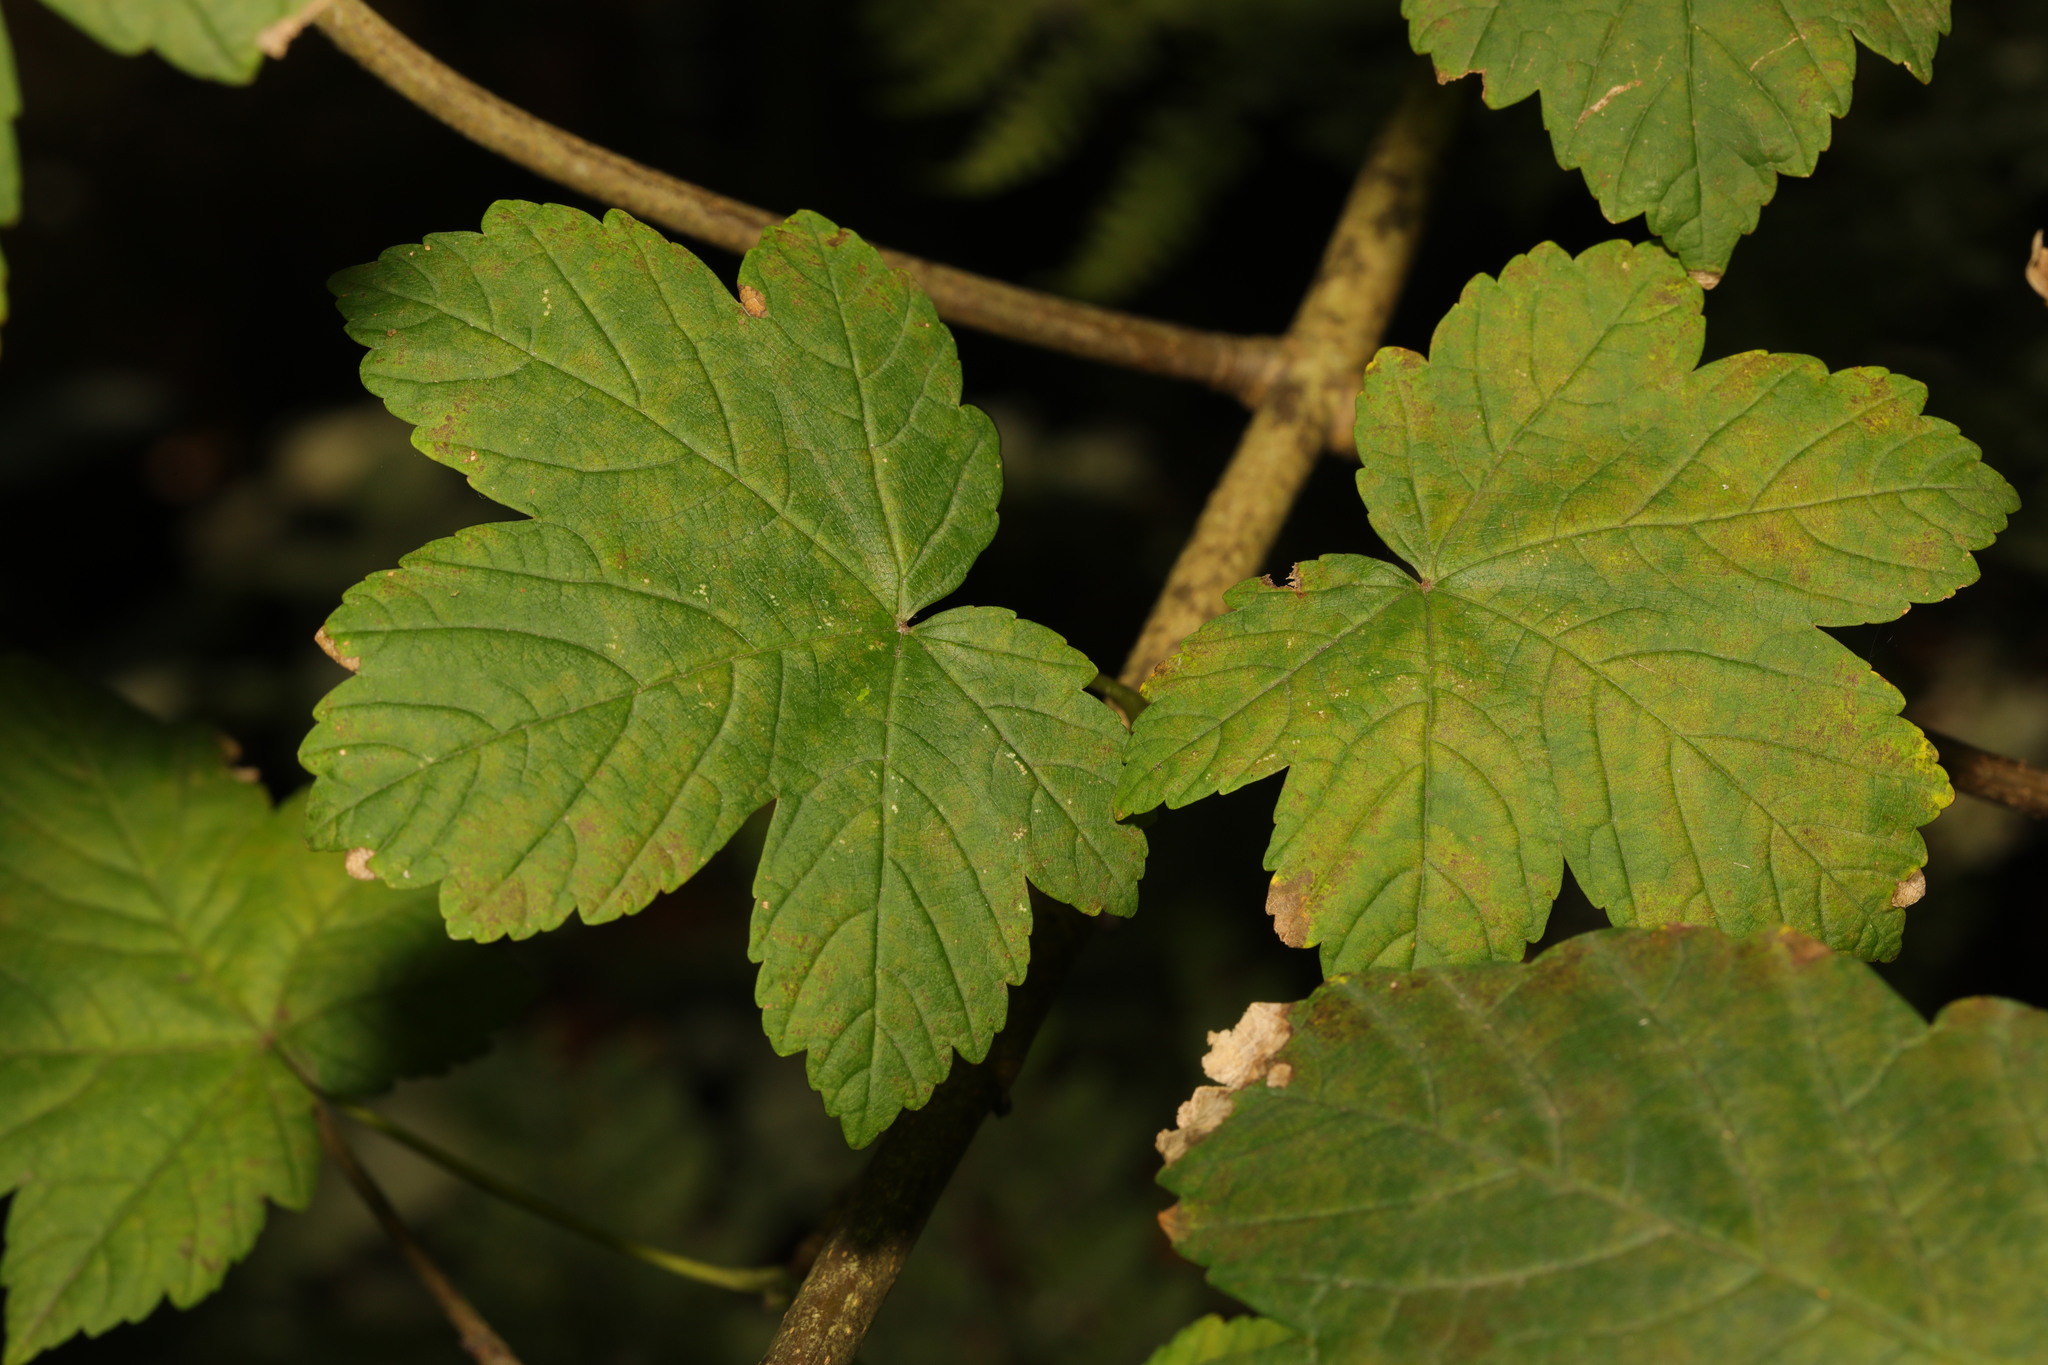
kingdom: Plantae
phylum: Tracheophyta
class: Magnoliopsida
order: Sapindales
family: Sapindaceae
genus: Acer
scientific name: Acer pseudoplatanus
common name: Sycamore
